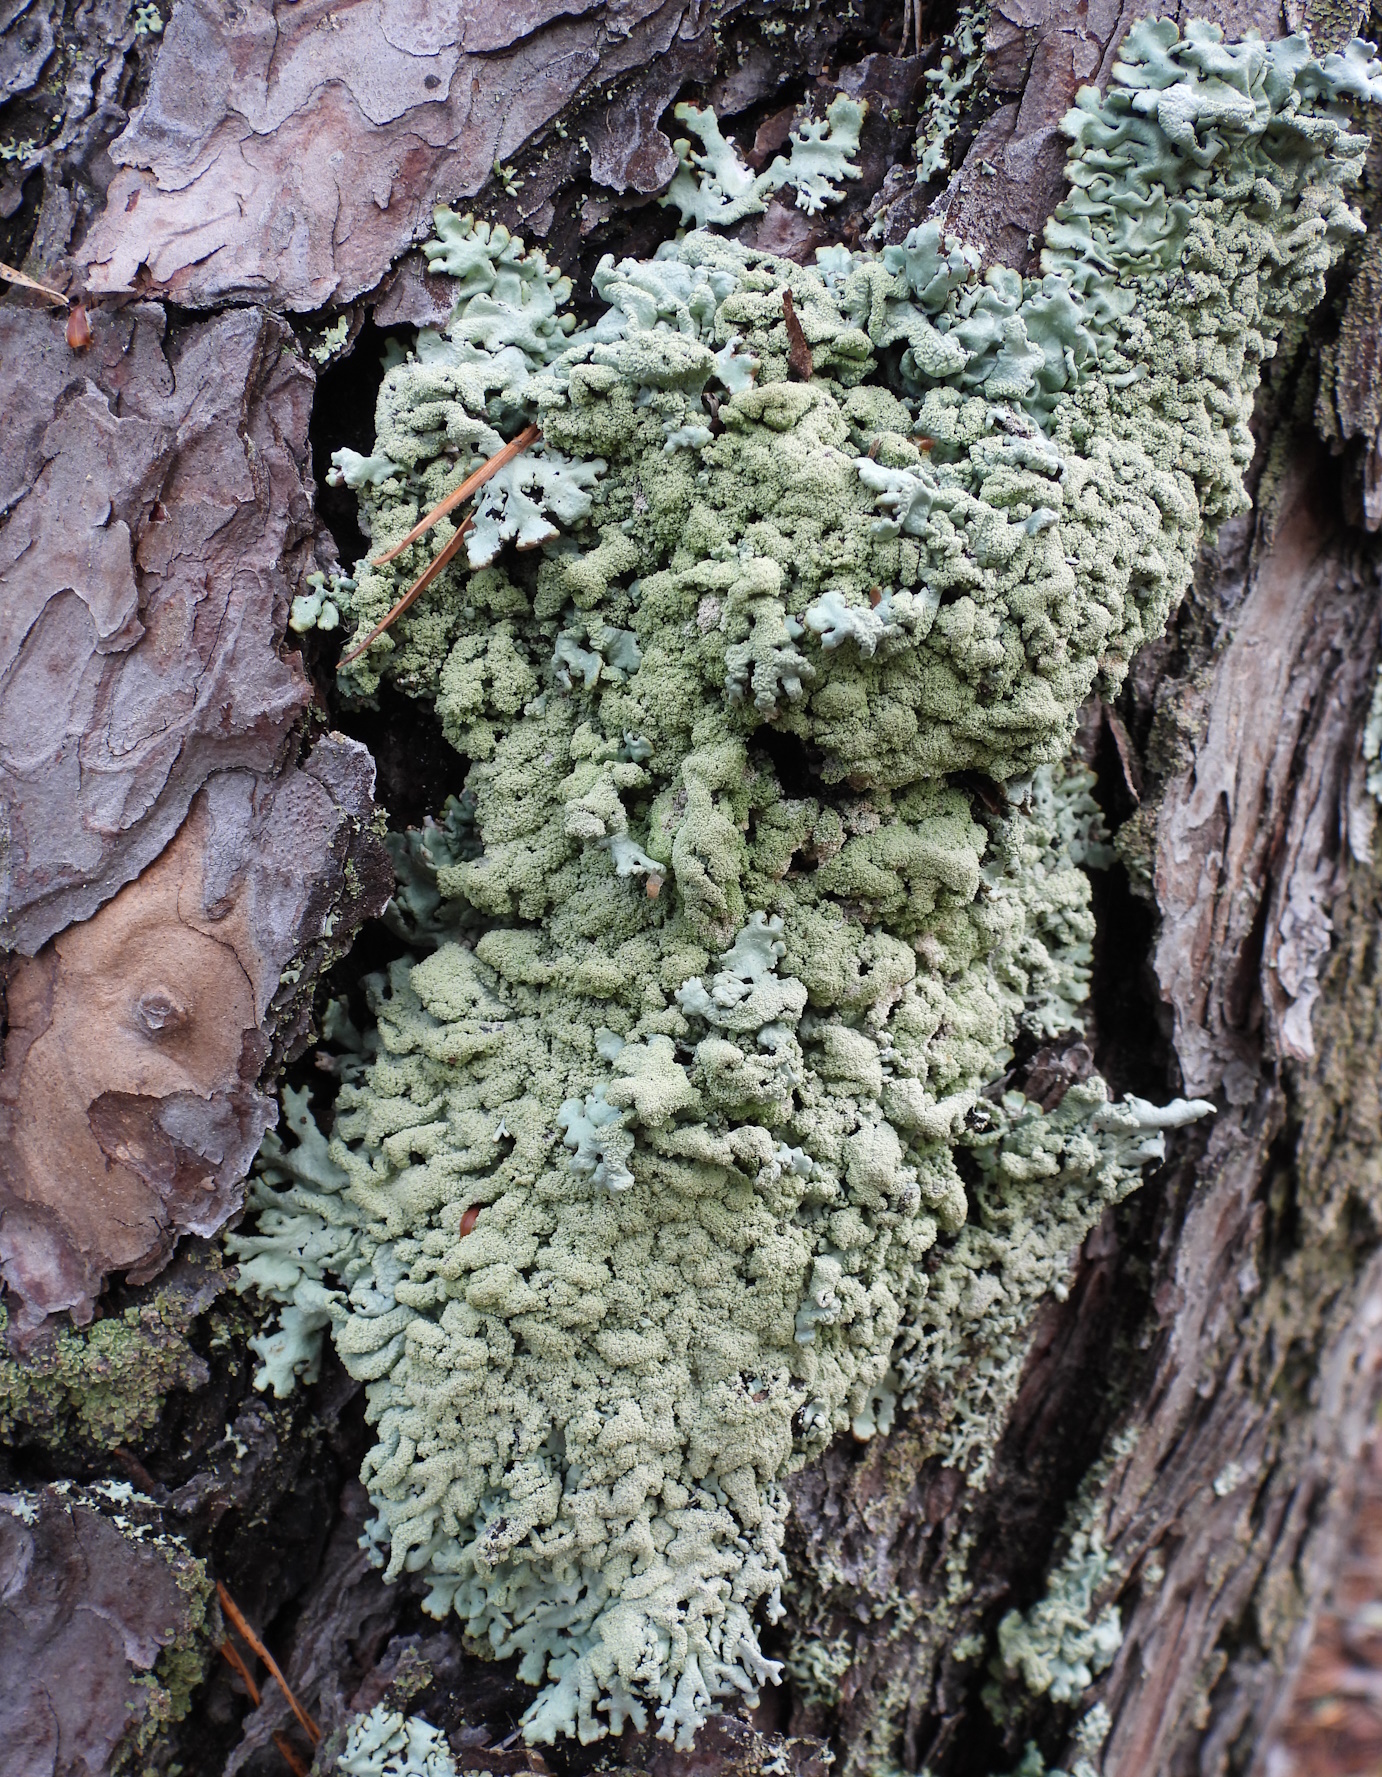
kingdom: Fungi
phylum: Ascomycota
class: Lecanoromycetes
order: Lecanorales
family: Parmeliaceae
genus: Hypogymnia
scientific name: Hypogymnia farinacea
